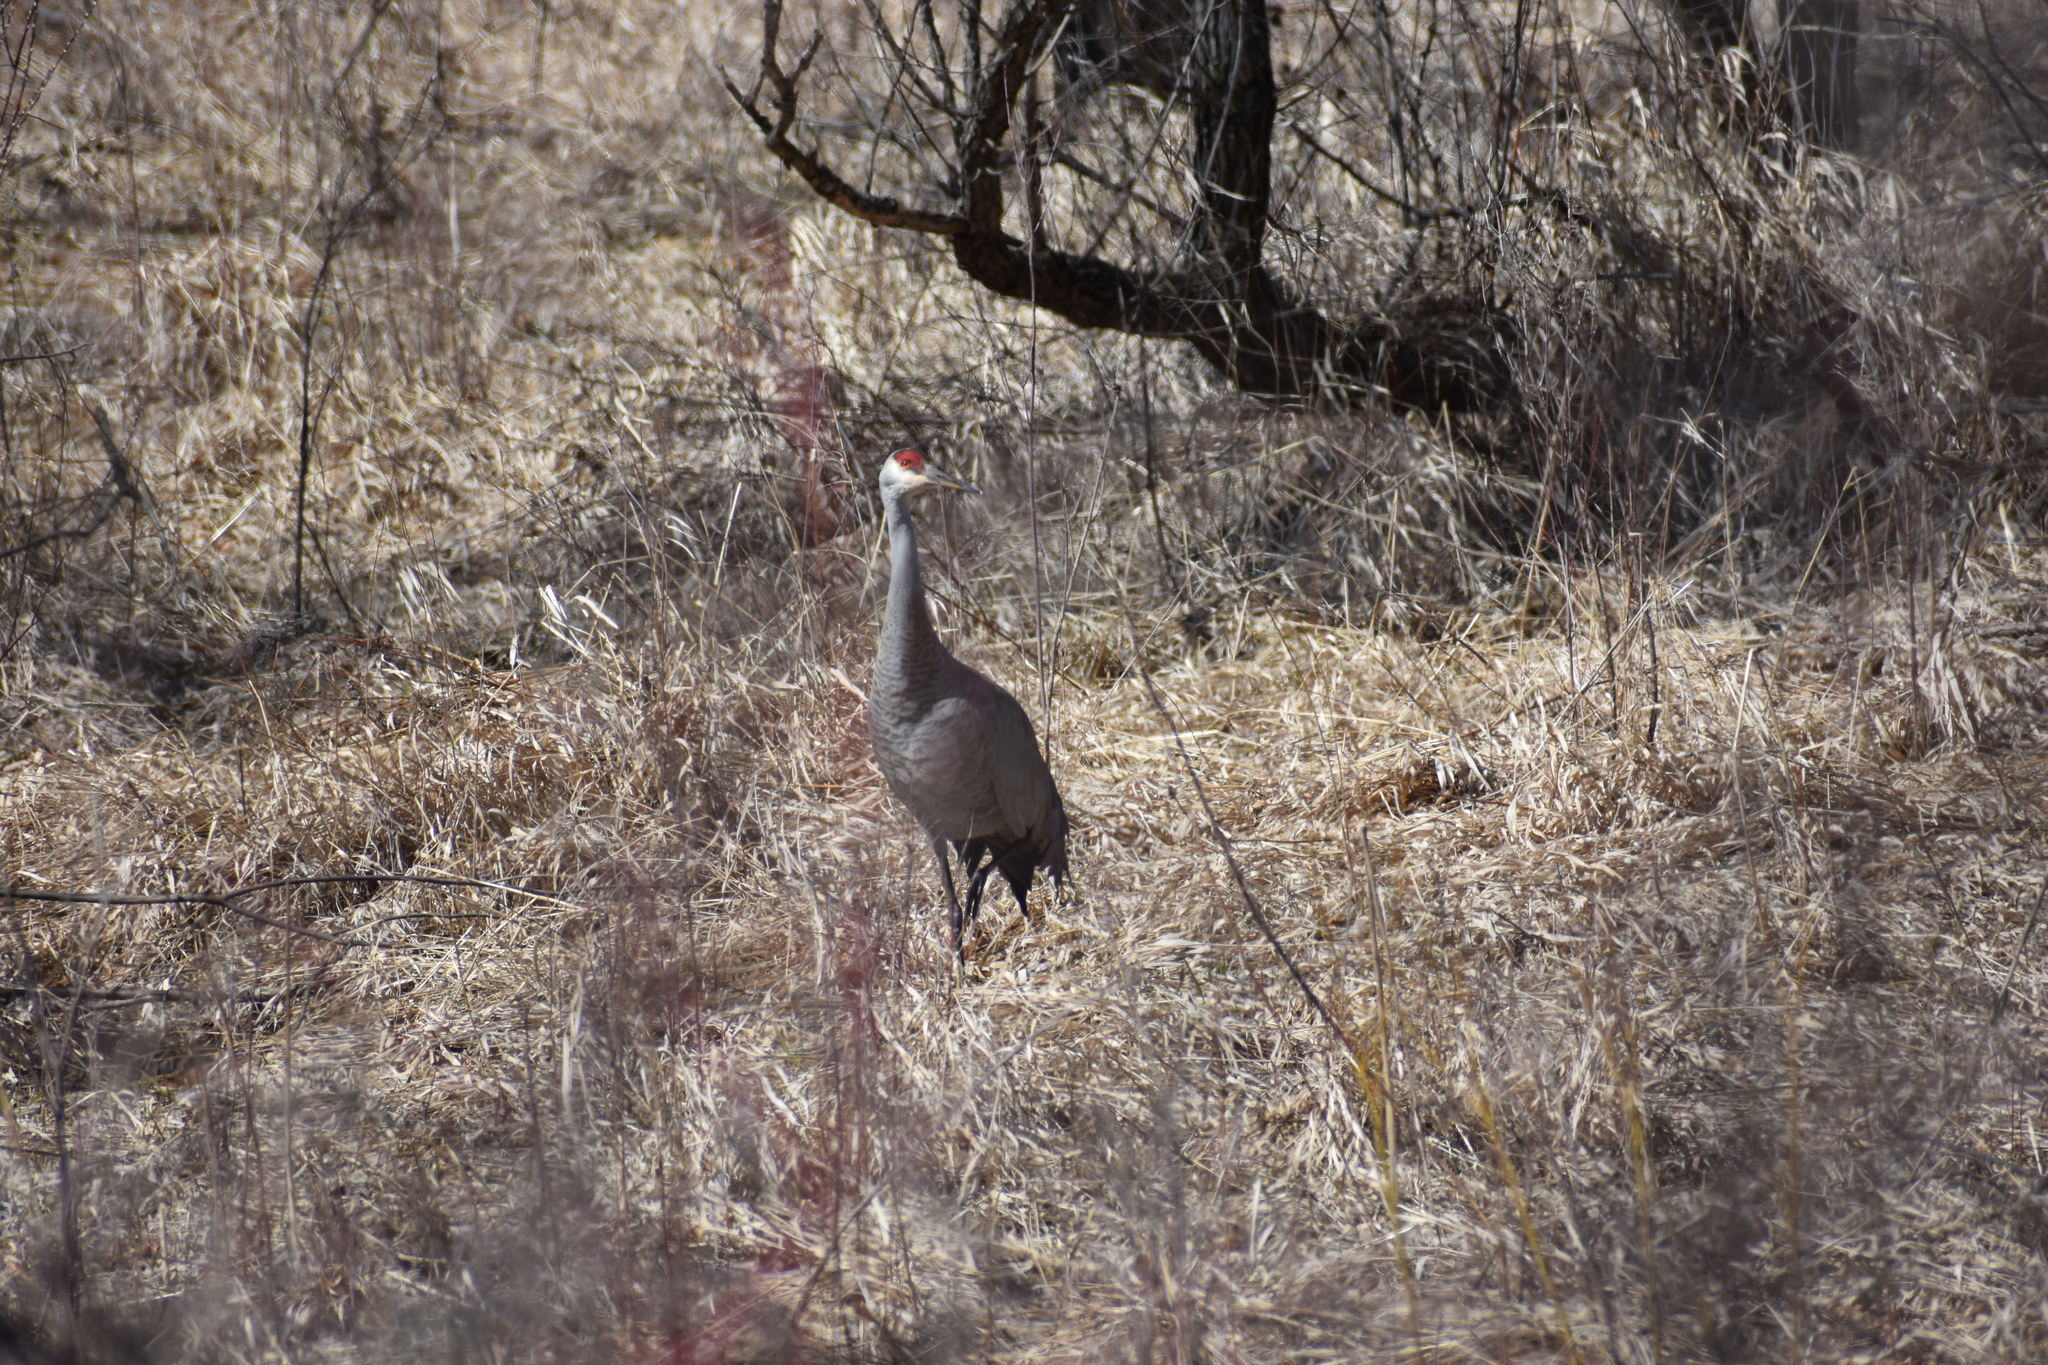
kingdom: Animalia
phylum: Chordata
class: Aves
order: Gruiformes
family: Gruidae
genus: Grus
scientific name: Grus canadensis
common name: Sandhill crane
